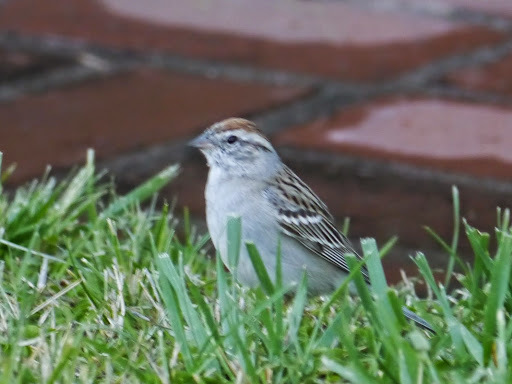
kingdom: Animalia
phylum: Chordata
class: Aves
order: Passeriformes
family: Passerellidae
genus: Spizella
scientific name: Spizella passerina
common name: Chipping sparrow
